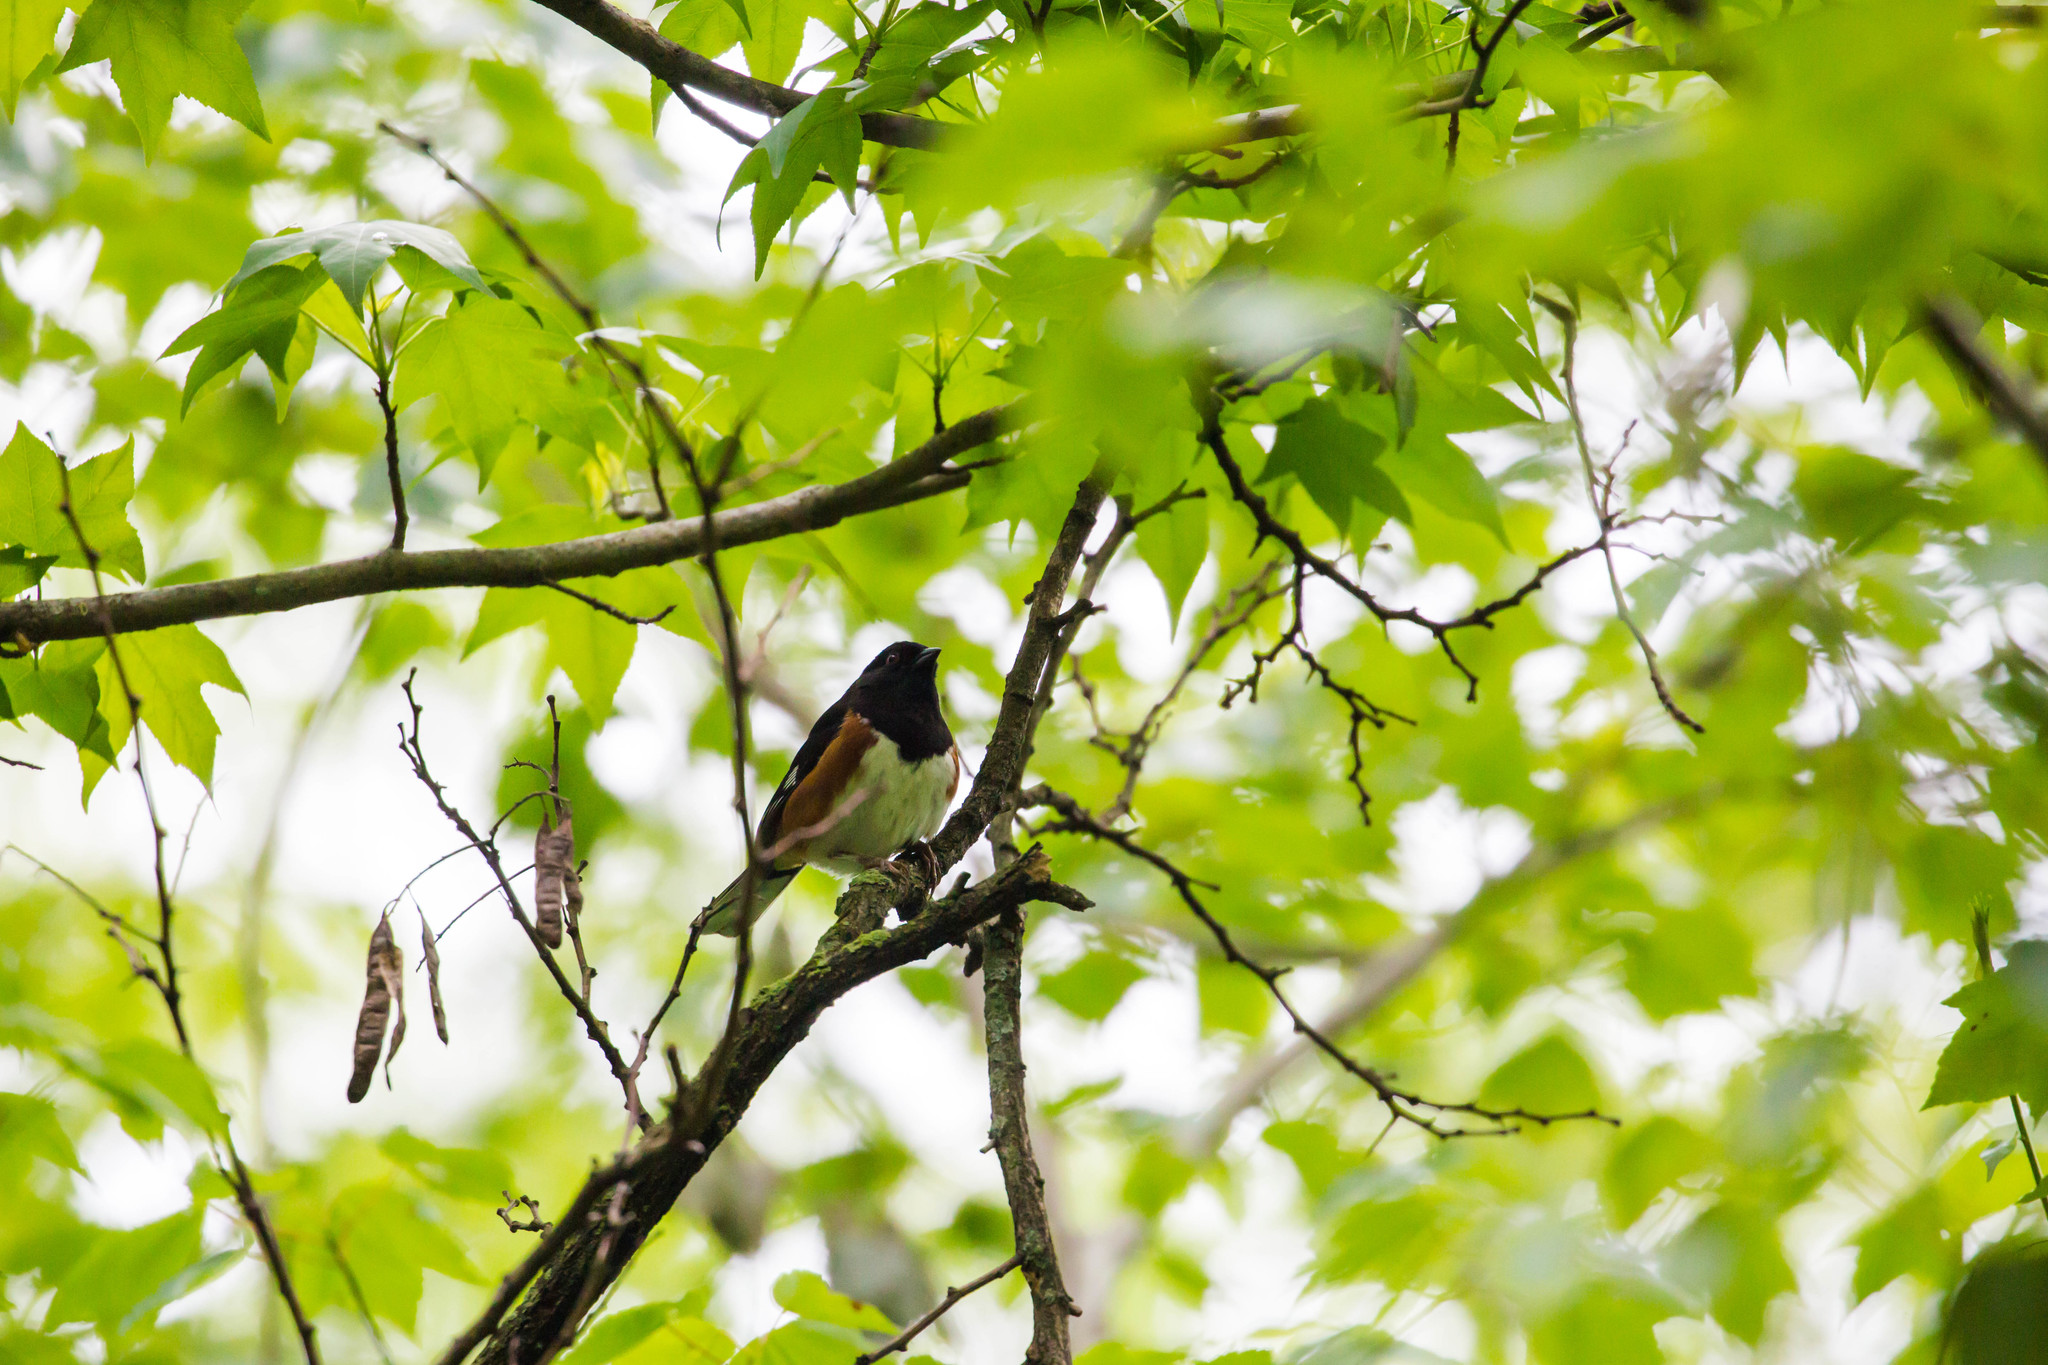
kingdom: Animalia
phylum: Chordata
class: Aves
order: Passeriformes
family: Passerellidae
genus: Pipilo
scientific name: Pipilo erythrophthalmus
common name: Eastern towhee
